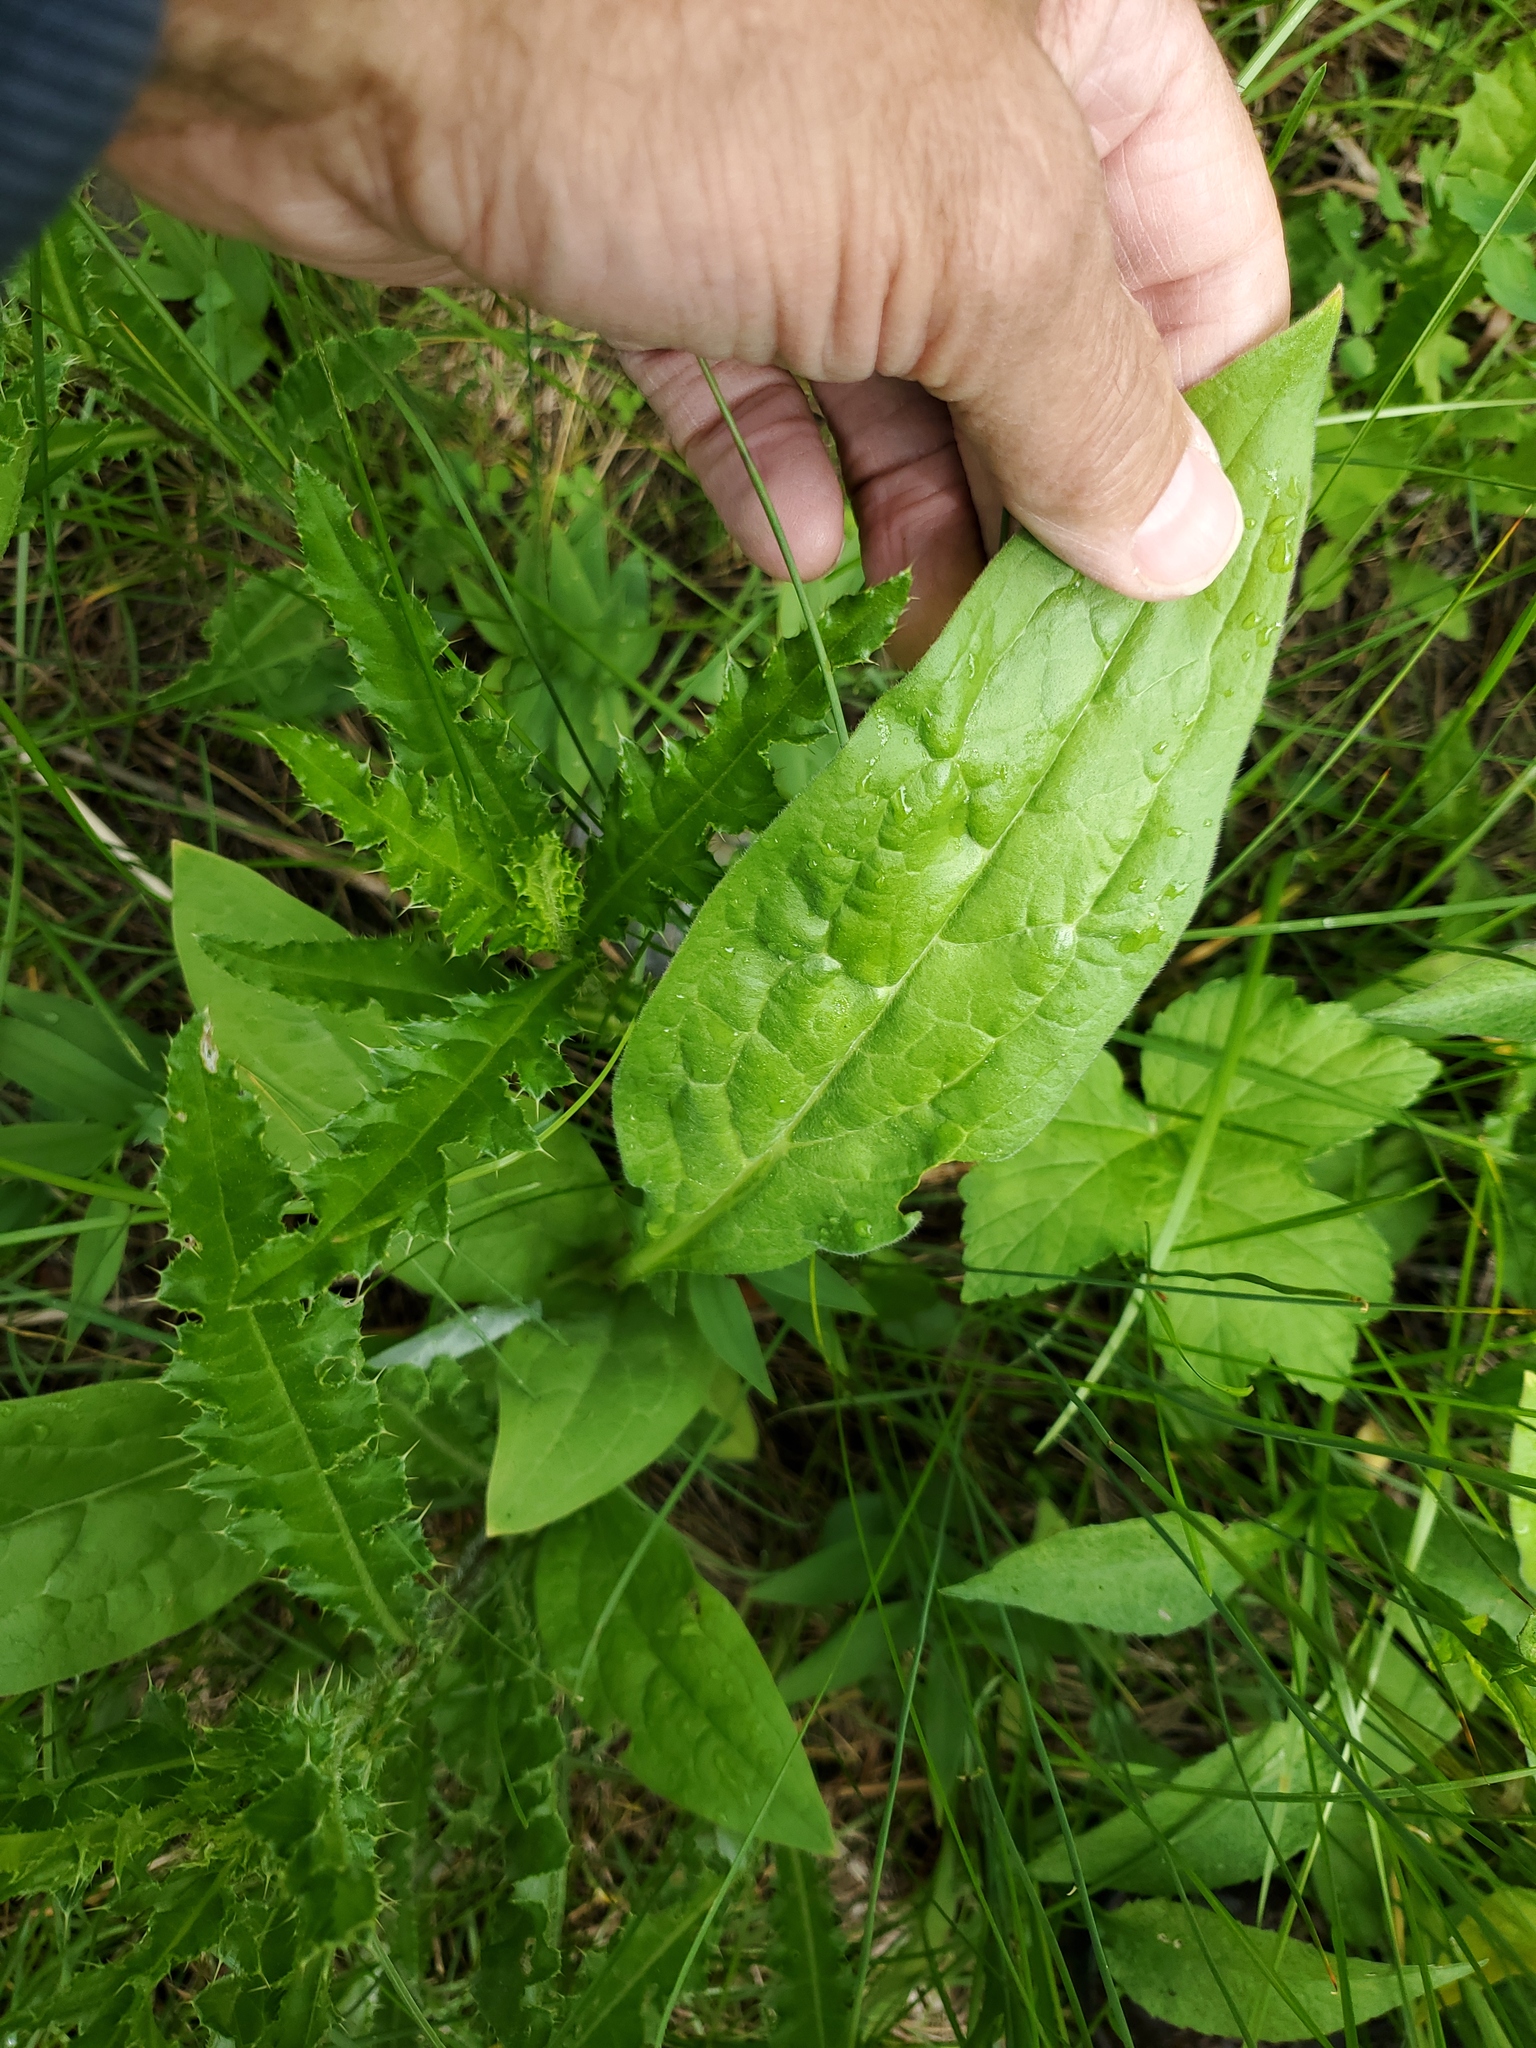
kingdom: Plantae
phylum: Tracheophyta
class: Magnoliopsida
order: Boraginales
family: Boraginaceae
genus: Cynoglossum
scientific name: Cynoglossum officinale
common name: Hound's-tongue
